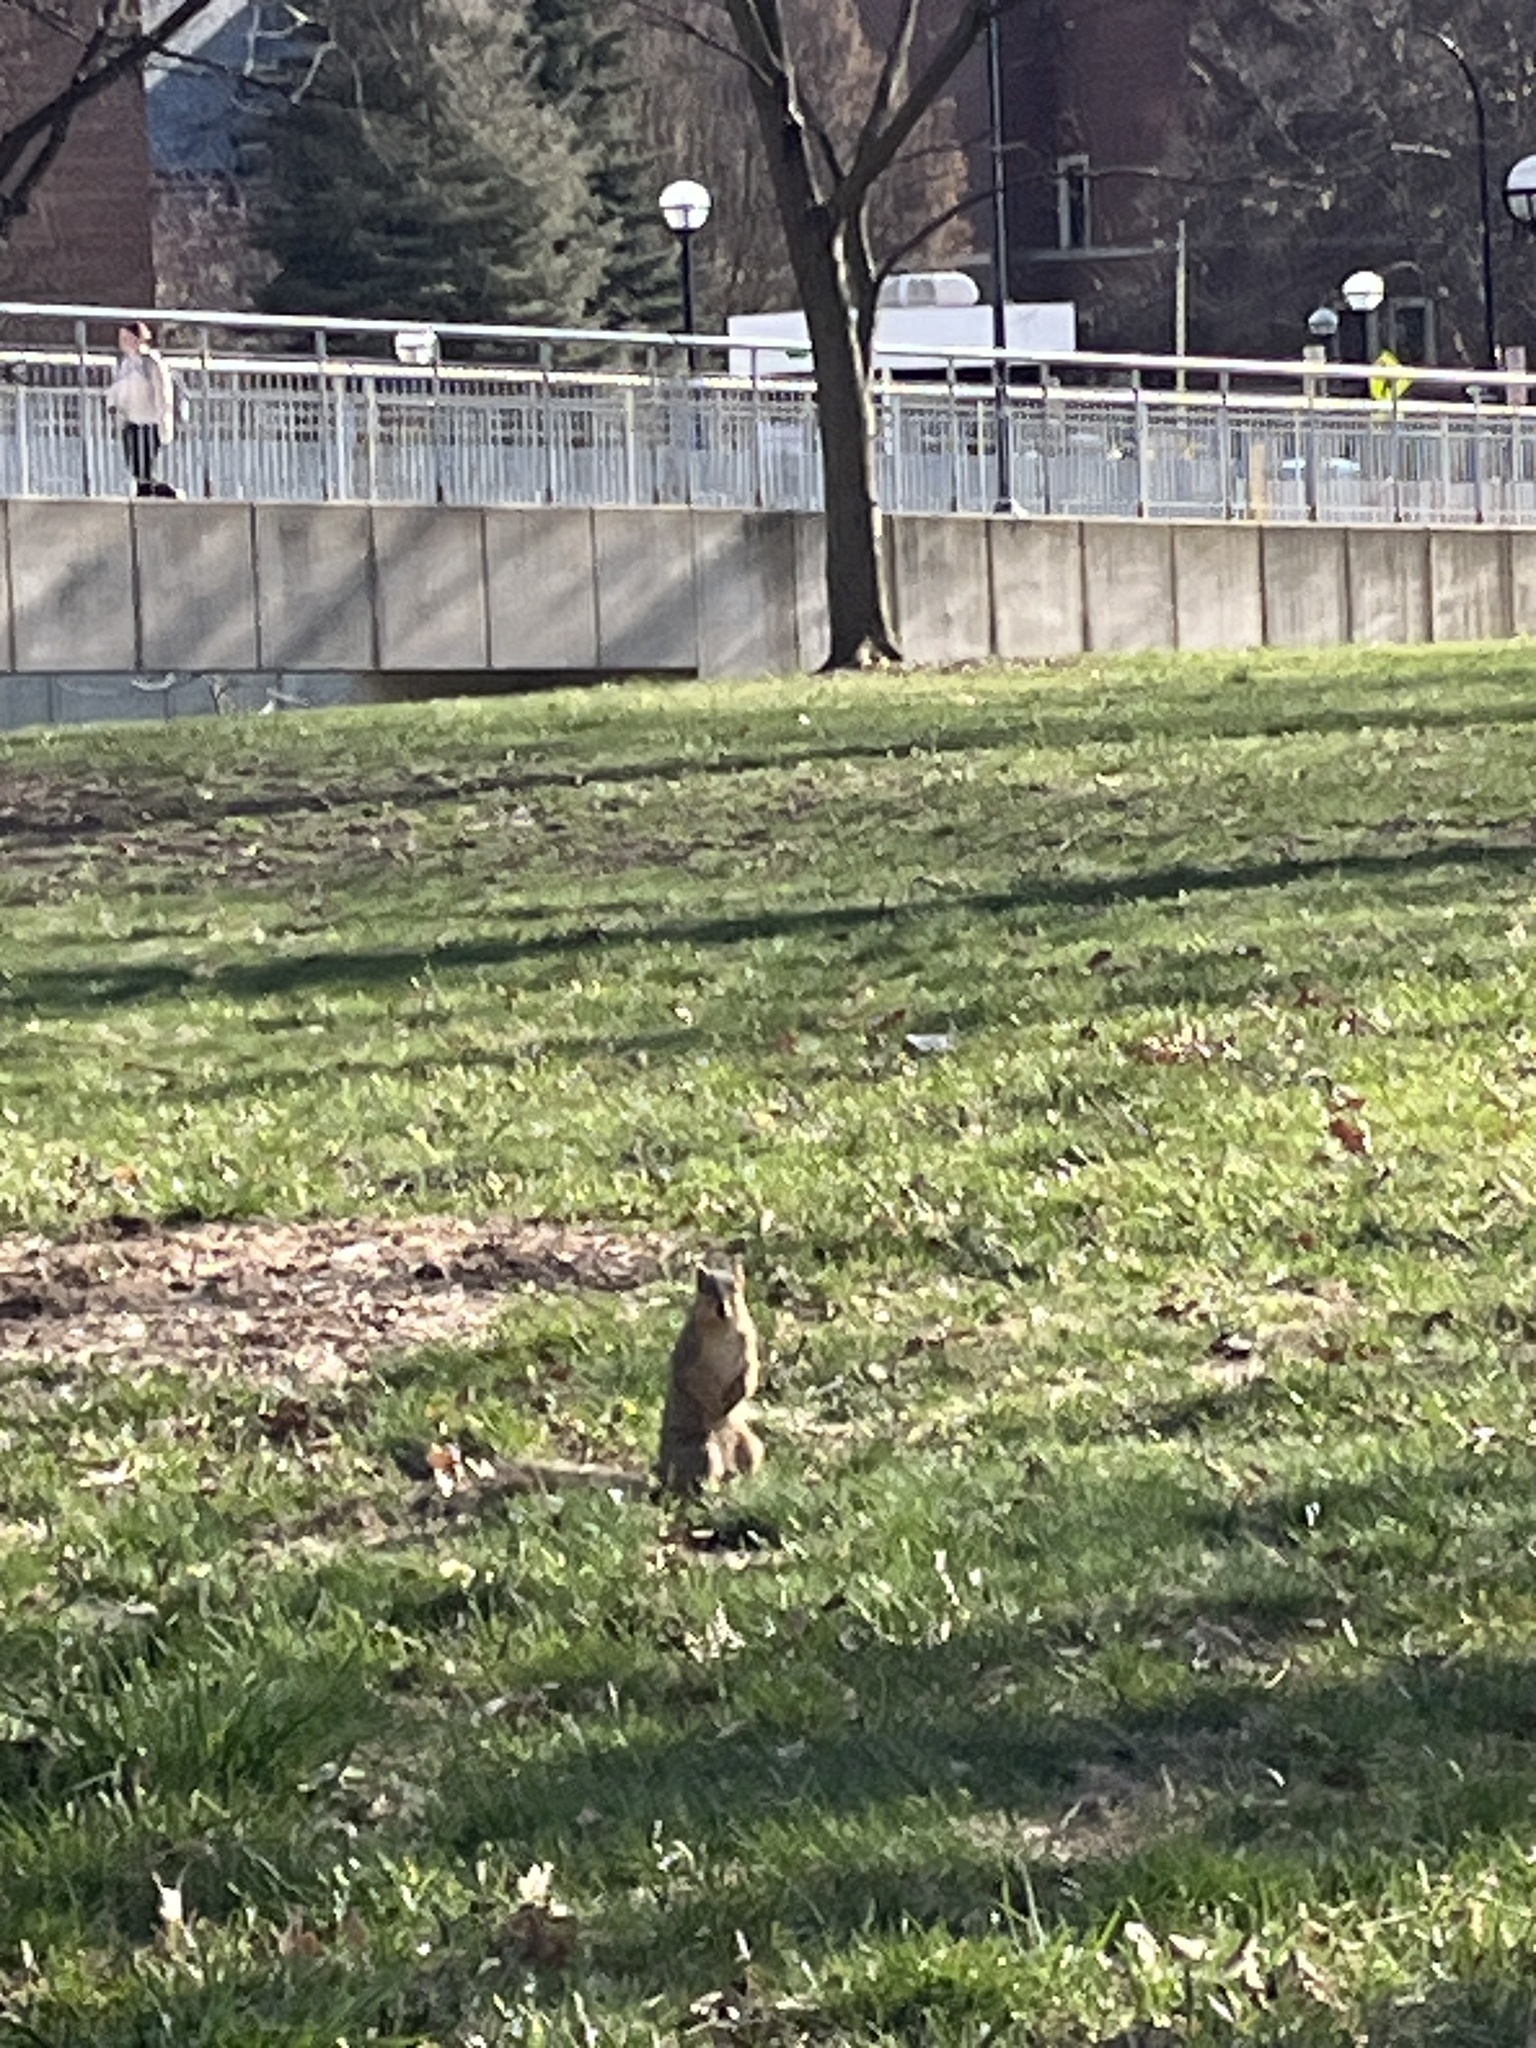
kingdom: Animalia
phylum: Chordata
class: Mammalia
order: Rodentia
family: Sciuridae
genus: Sciurus
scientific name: Sciurus niger
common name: Fox squirrel
